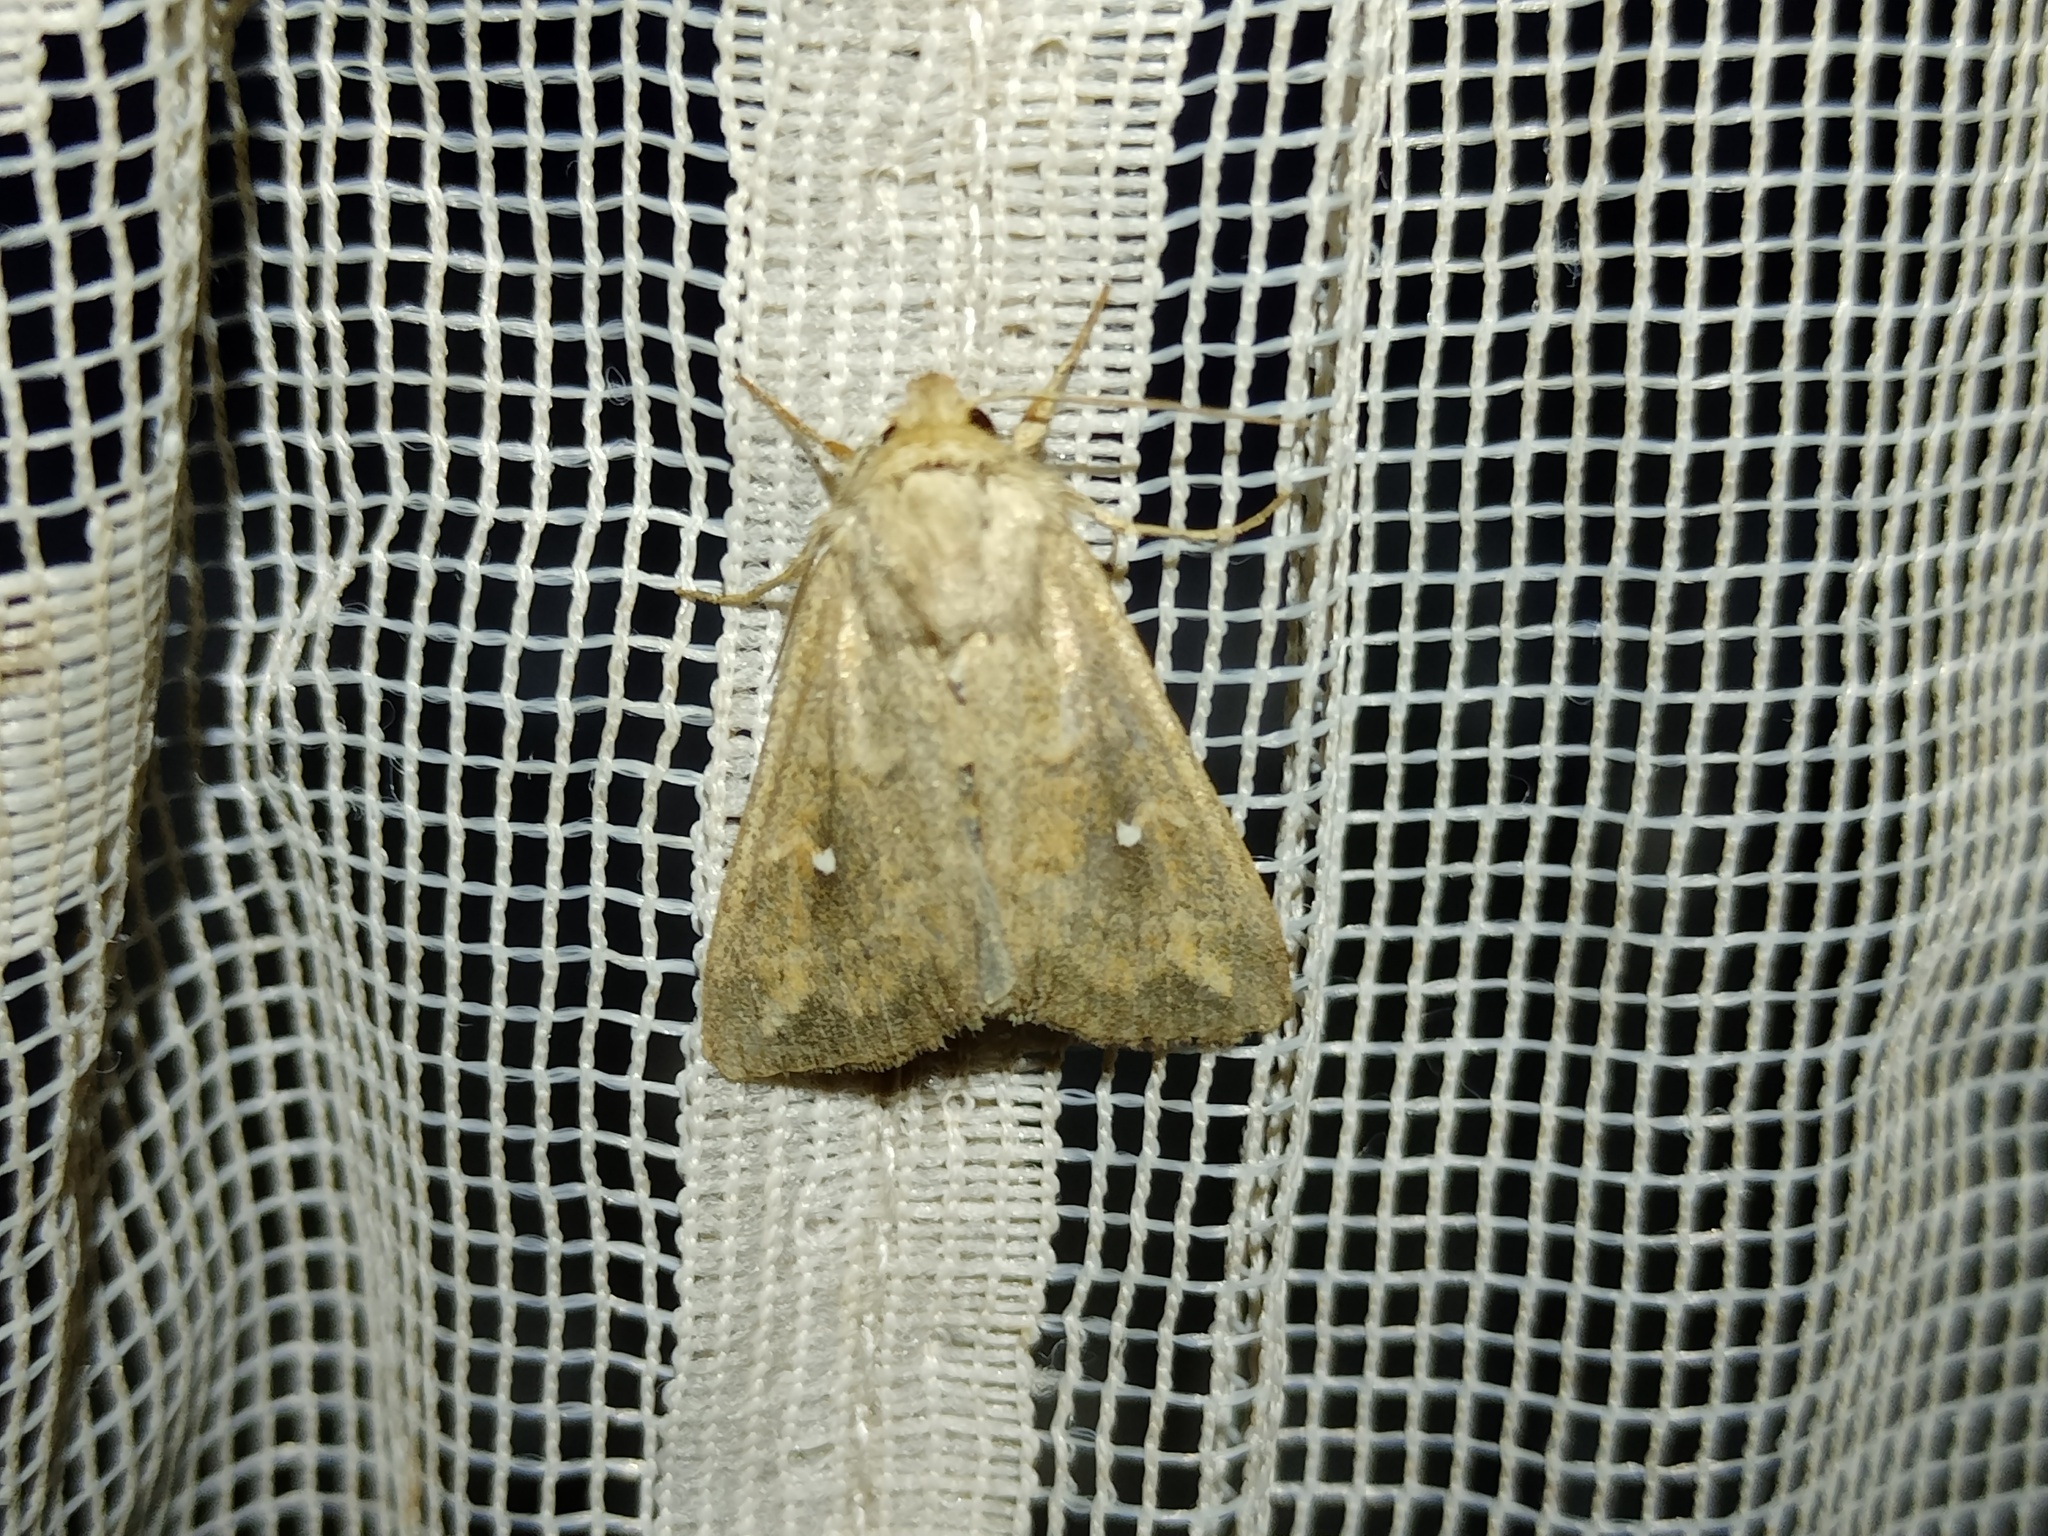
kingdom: Animalia
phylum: Arthropoda
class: Insecta
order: Lepidoptera
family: Noctuidae
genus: Mythimna
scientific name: Mythimna albipuncta
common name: White-point
